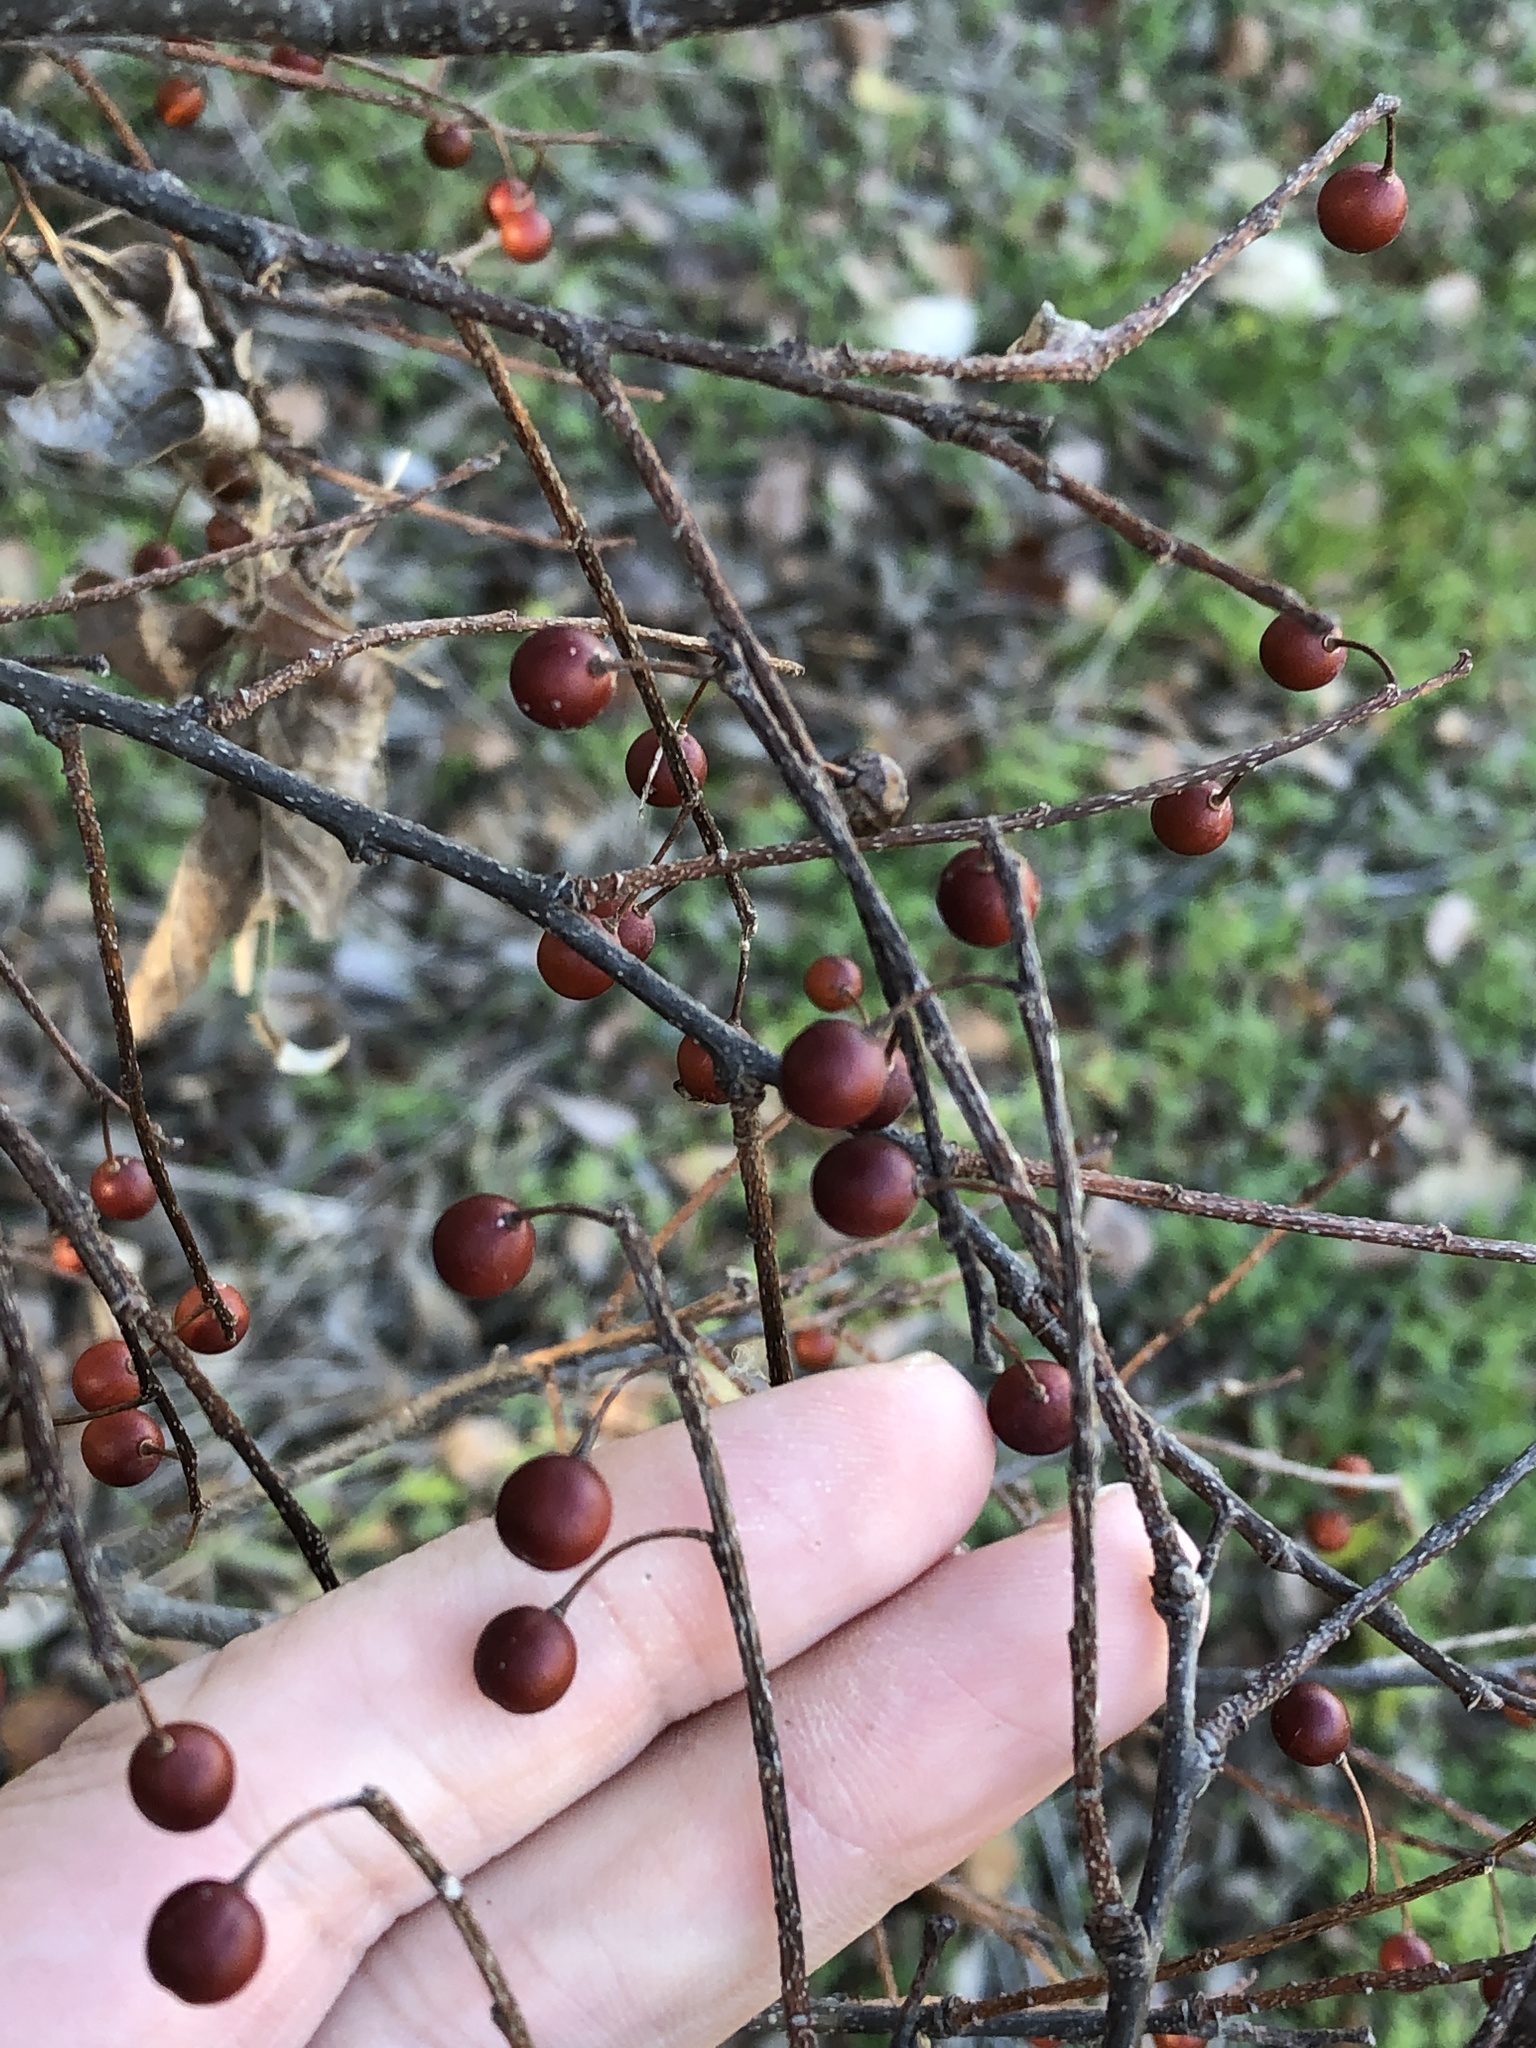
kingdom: Plantae
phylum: Tracheophyta
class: Magnoliopsida
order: Rosales
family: Cannabaceae
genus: Celtis
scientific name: Celtis laevigata
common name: Sugarberry
